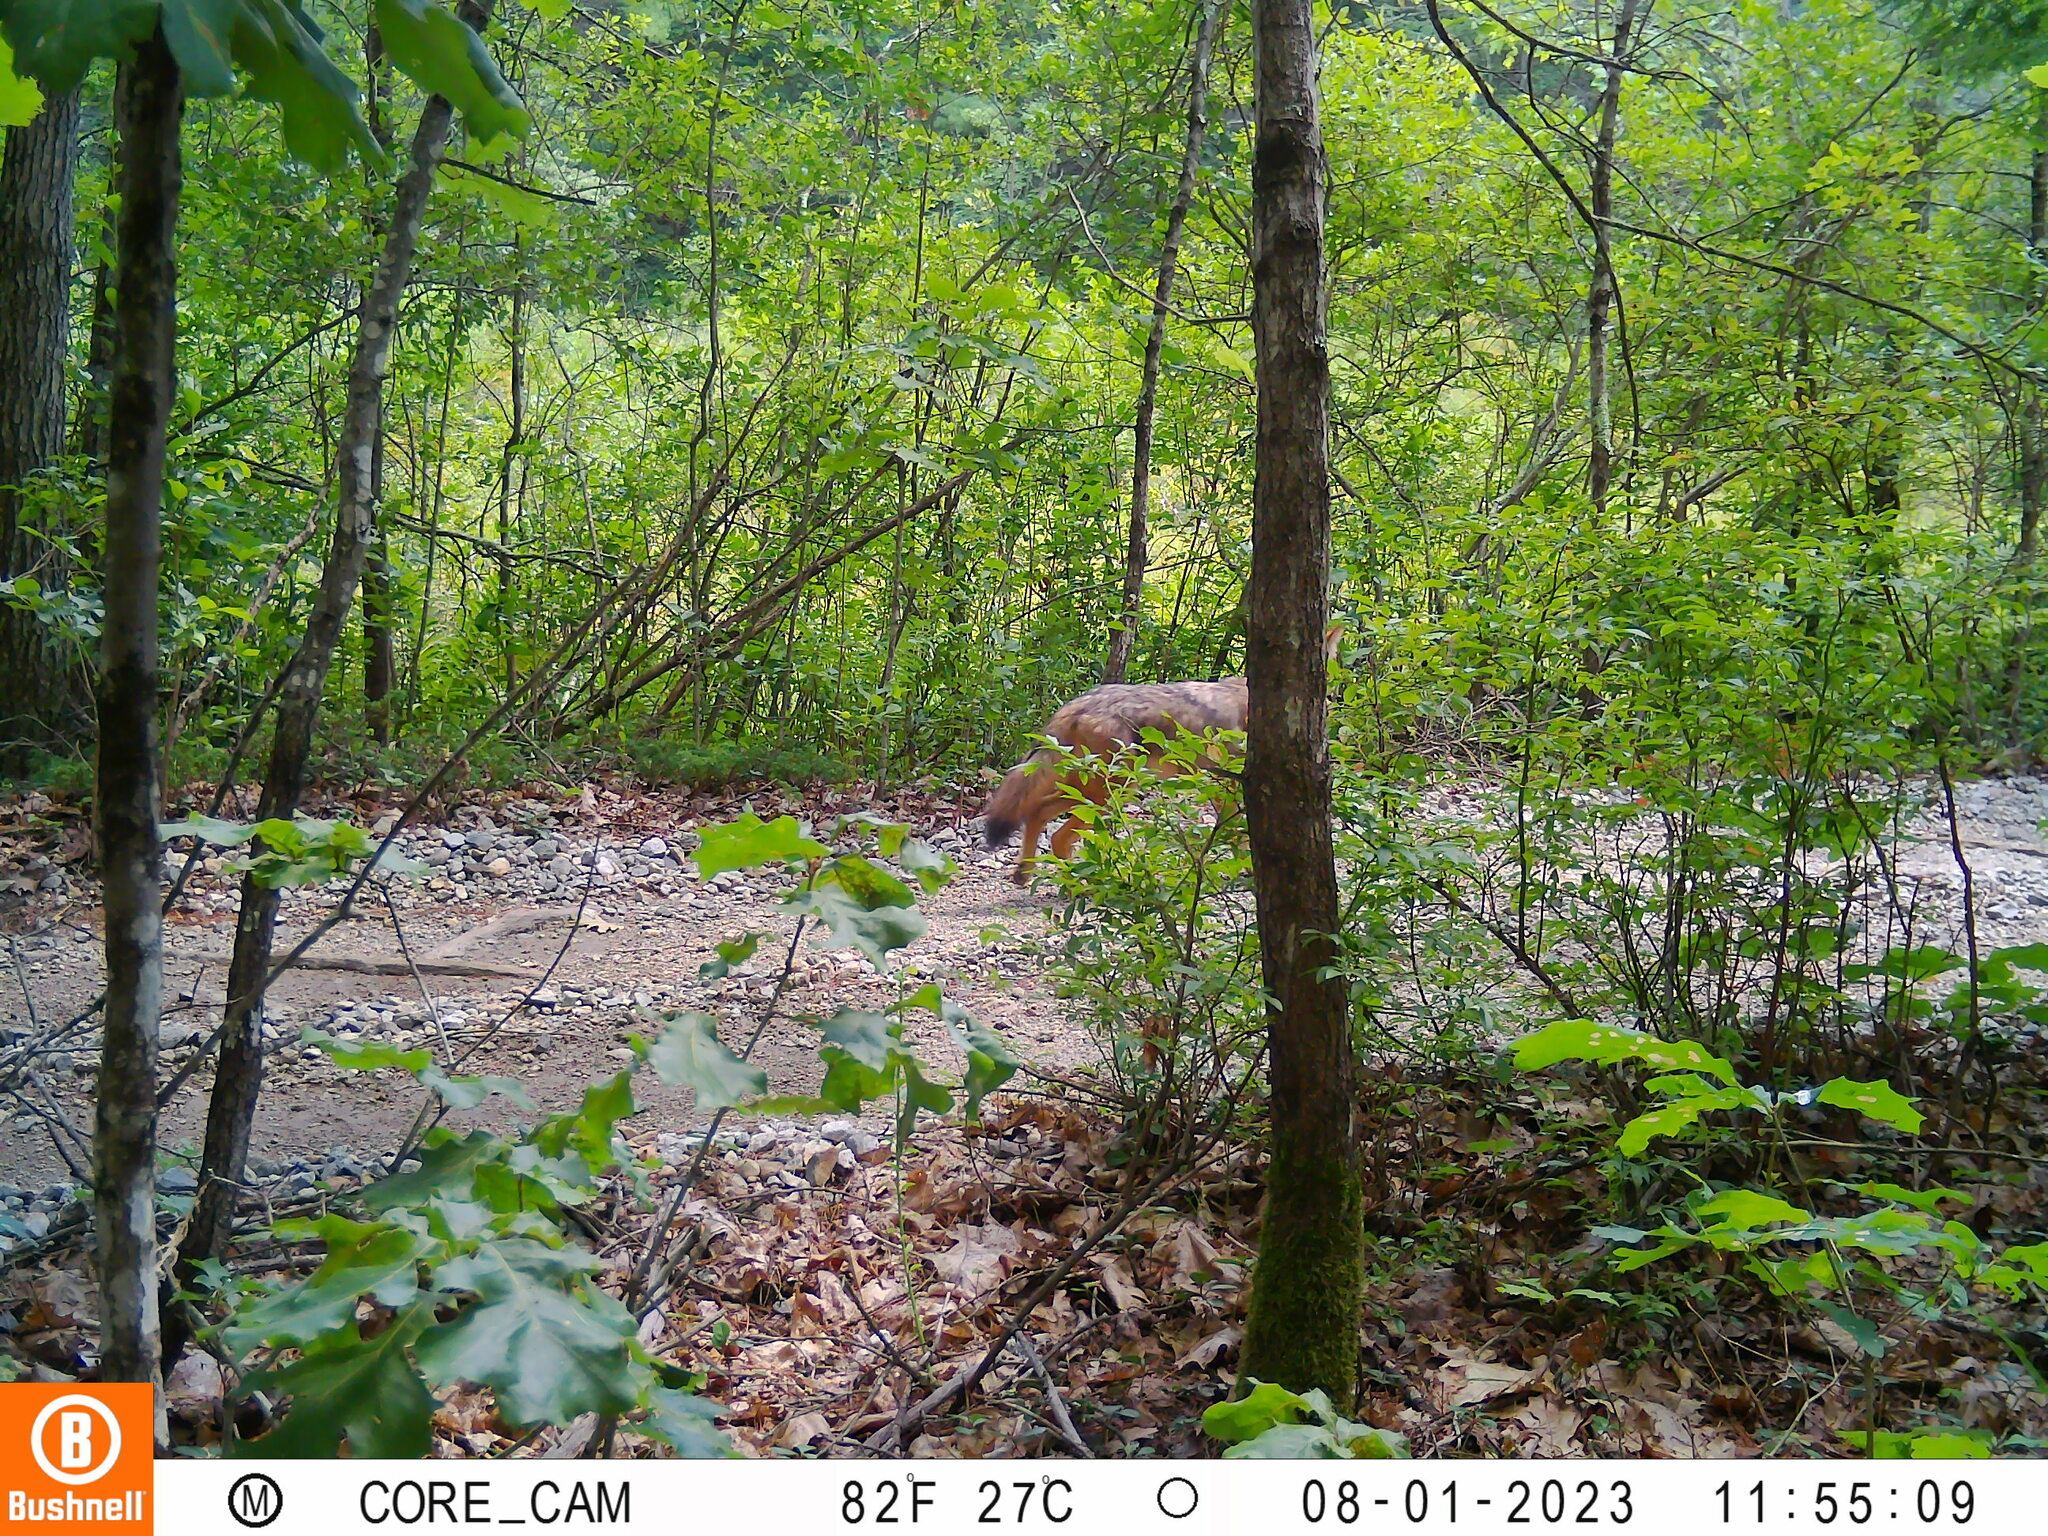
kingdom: Animalia
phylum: Chordata
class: Mammalia
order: Carnivora
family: Canidae
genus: Canis
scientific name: Canis latrans
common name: Coyote
